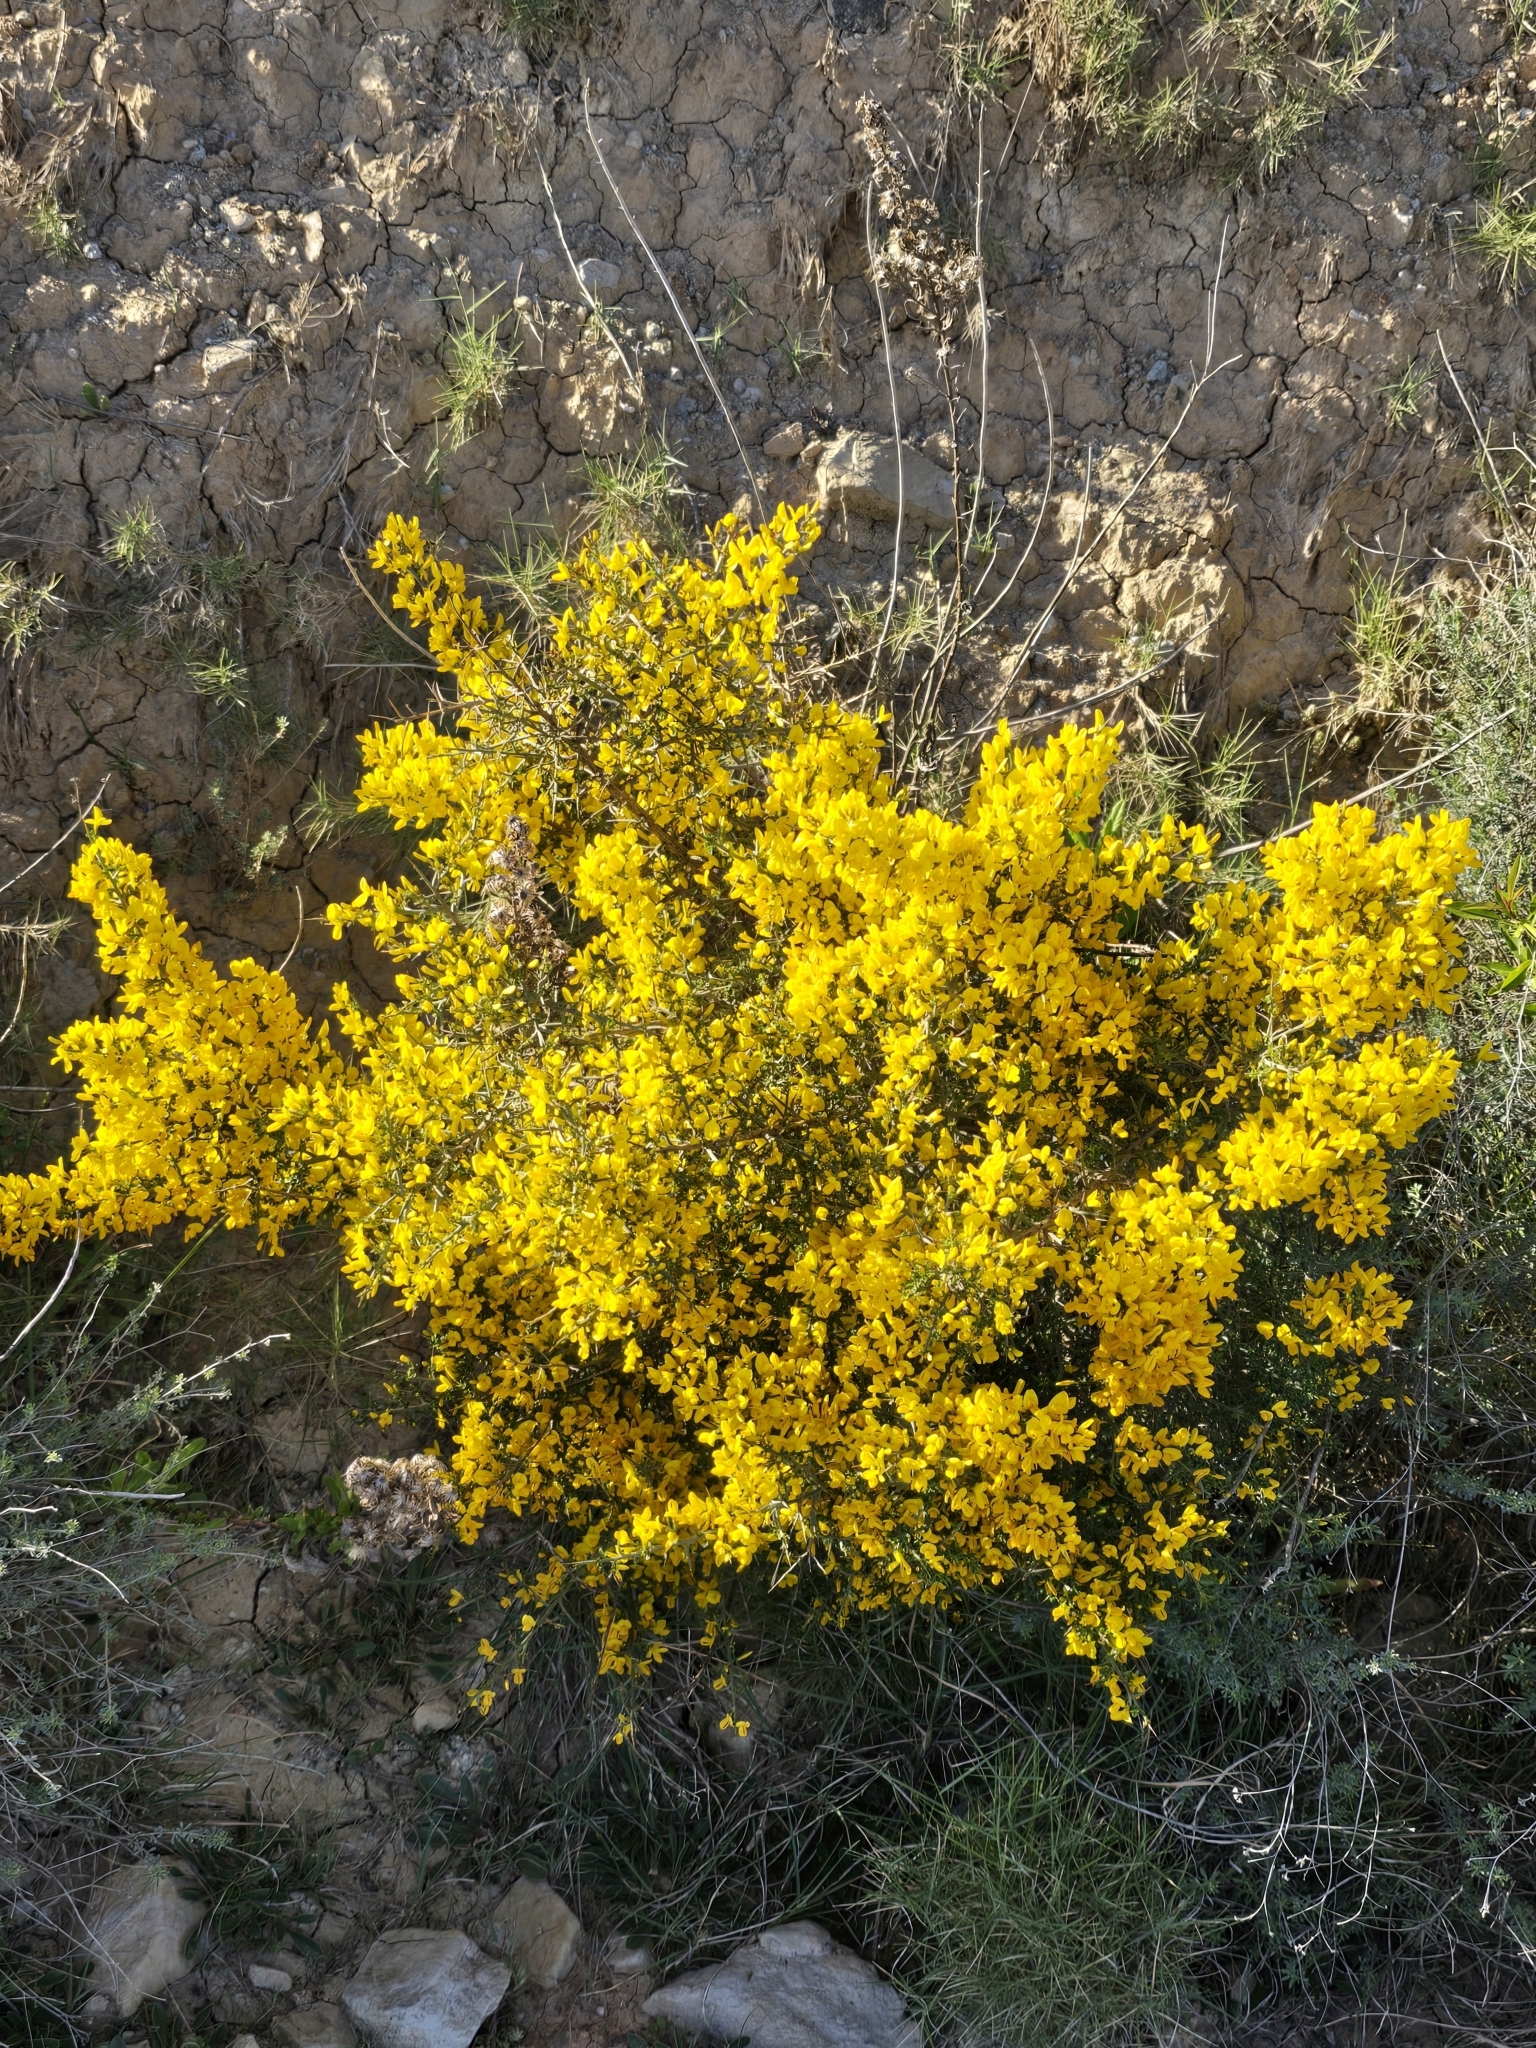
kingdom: Plantae
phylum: Tracheophyta
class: Magnoliopsida
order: Fabales
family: Fabaceae
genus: Genista
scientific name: Genista scorpius
